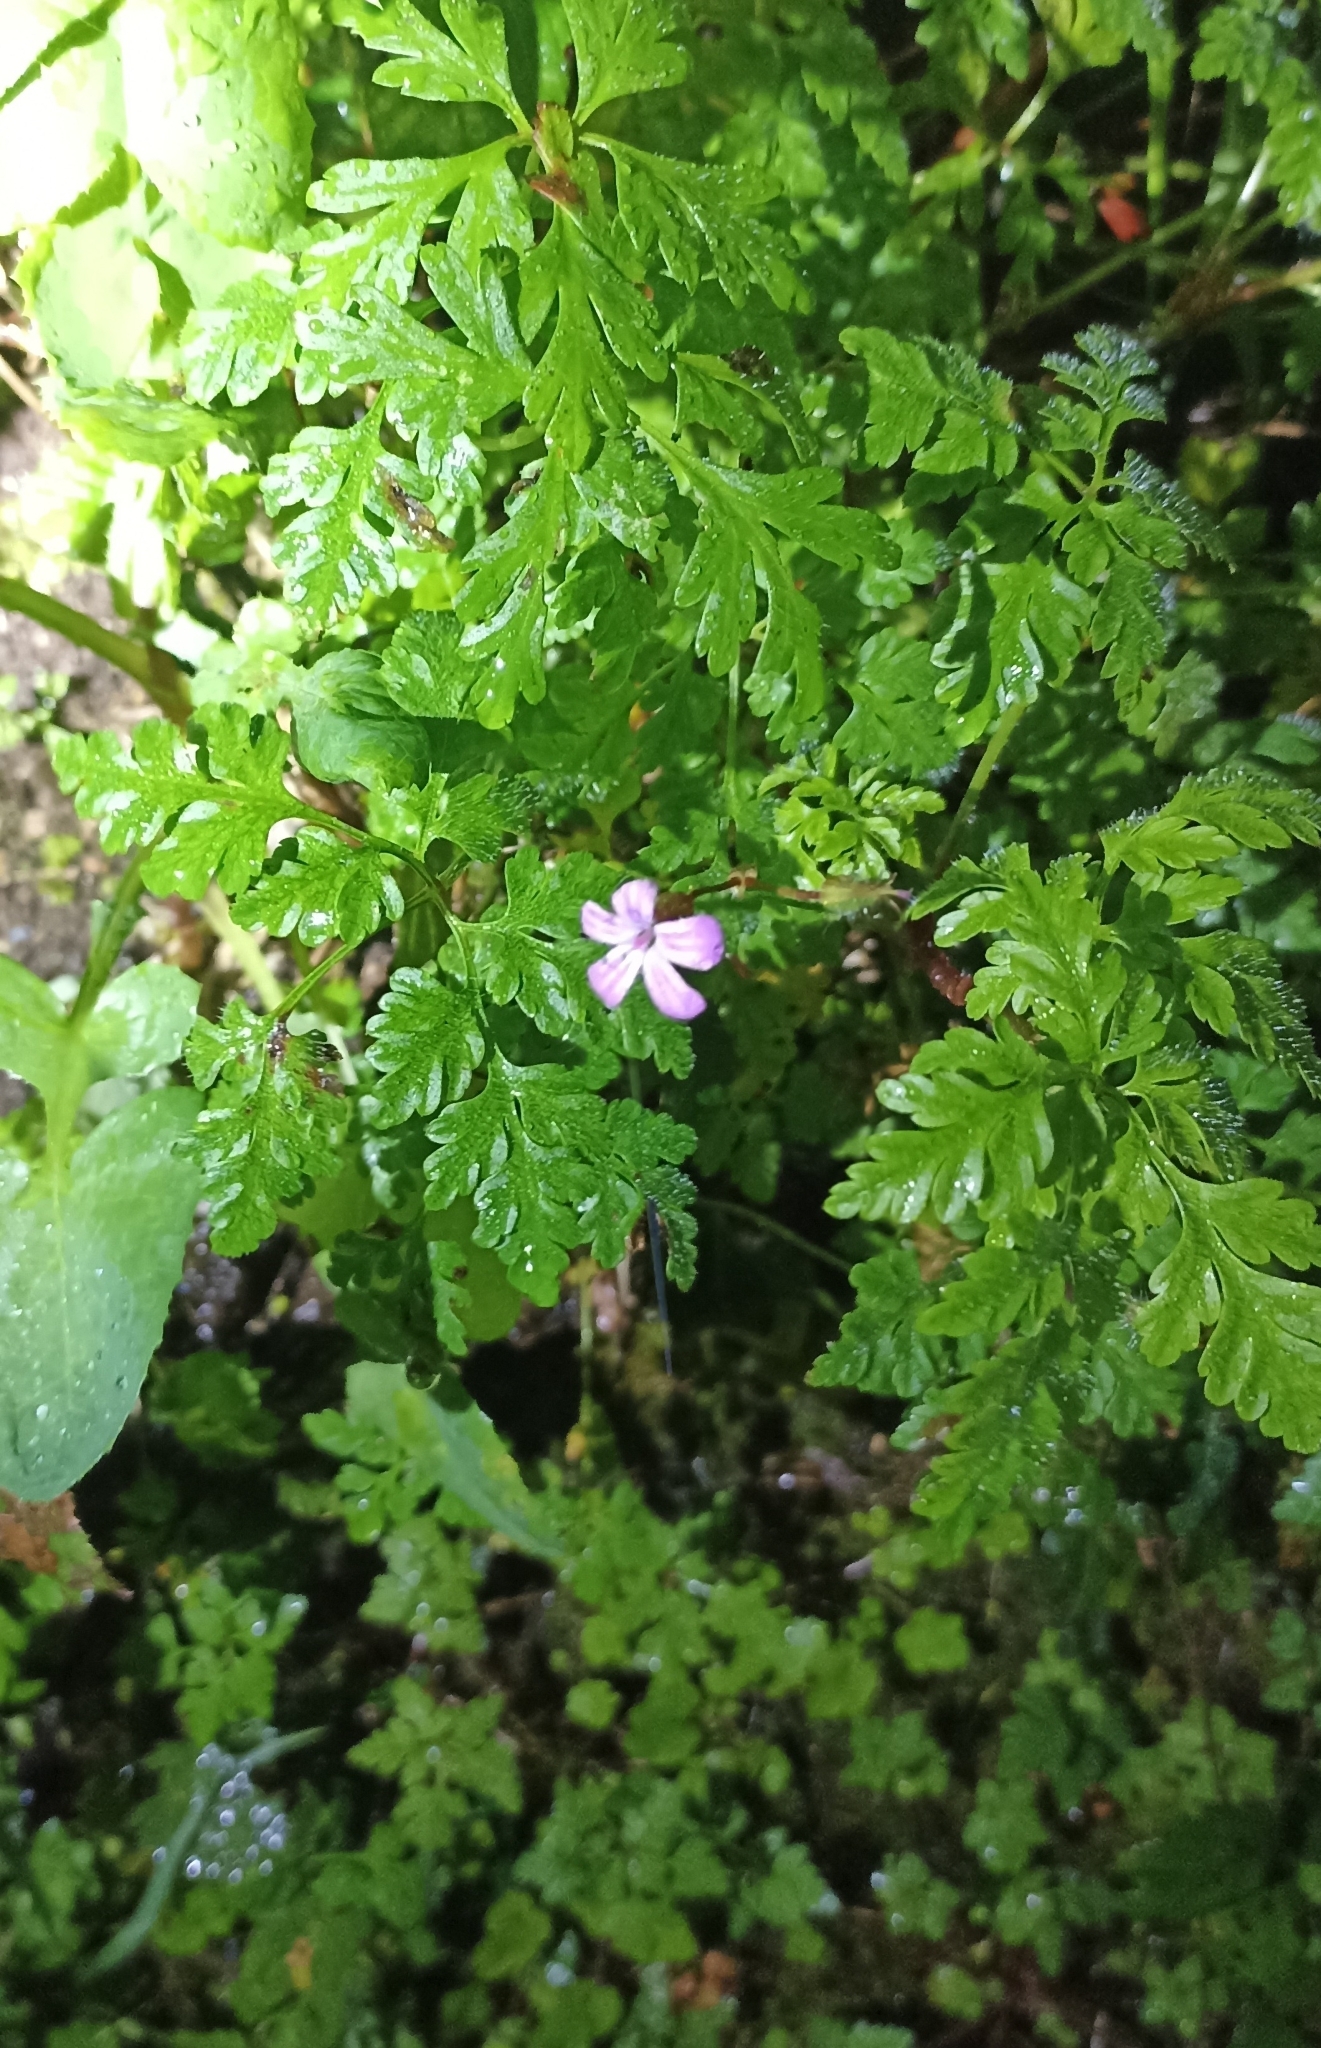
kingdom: Plantae
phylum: Tracheophyta
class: Magnoliopsida
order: Geraniales
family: Geraniaceae
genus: Geranium
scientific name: Geranium robertianum
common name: Herb-robert
